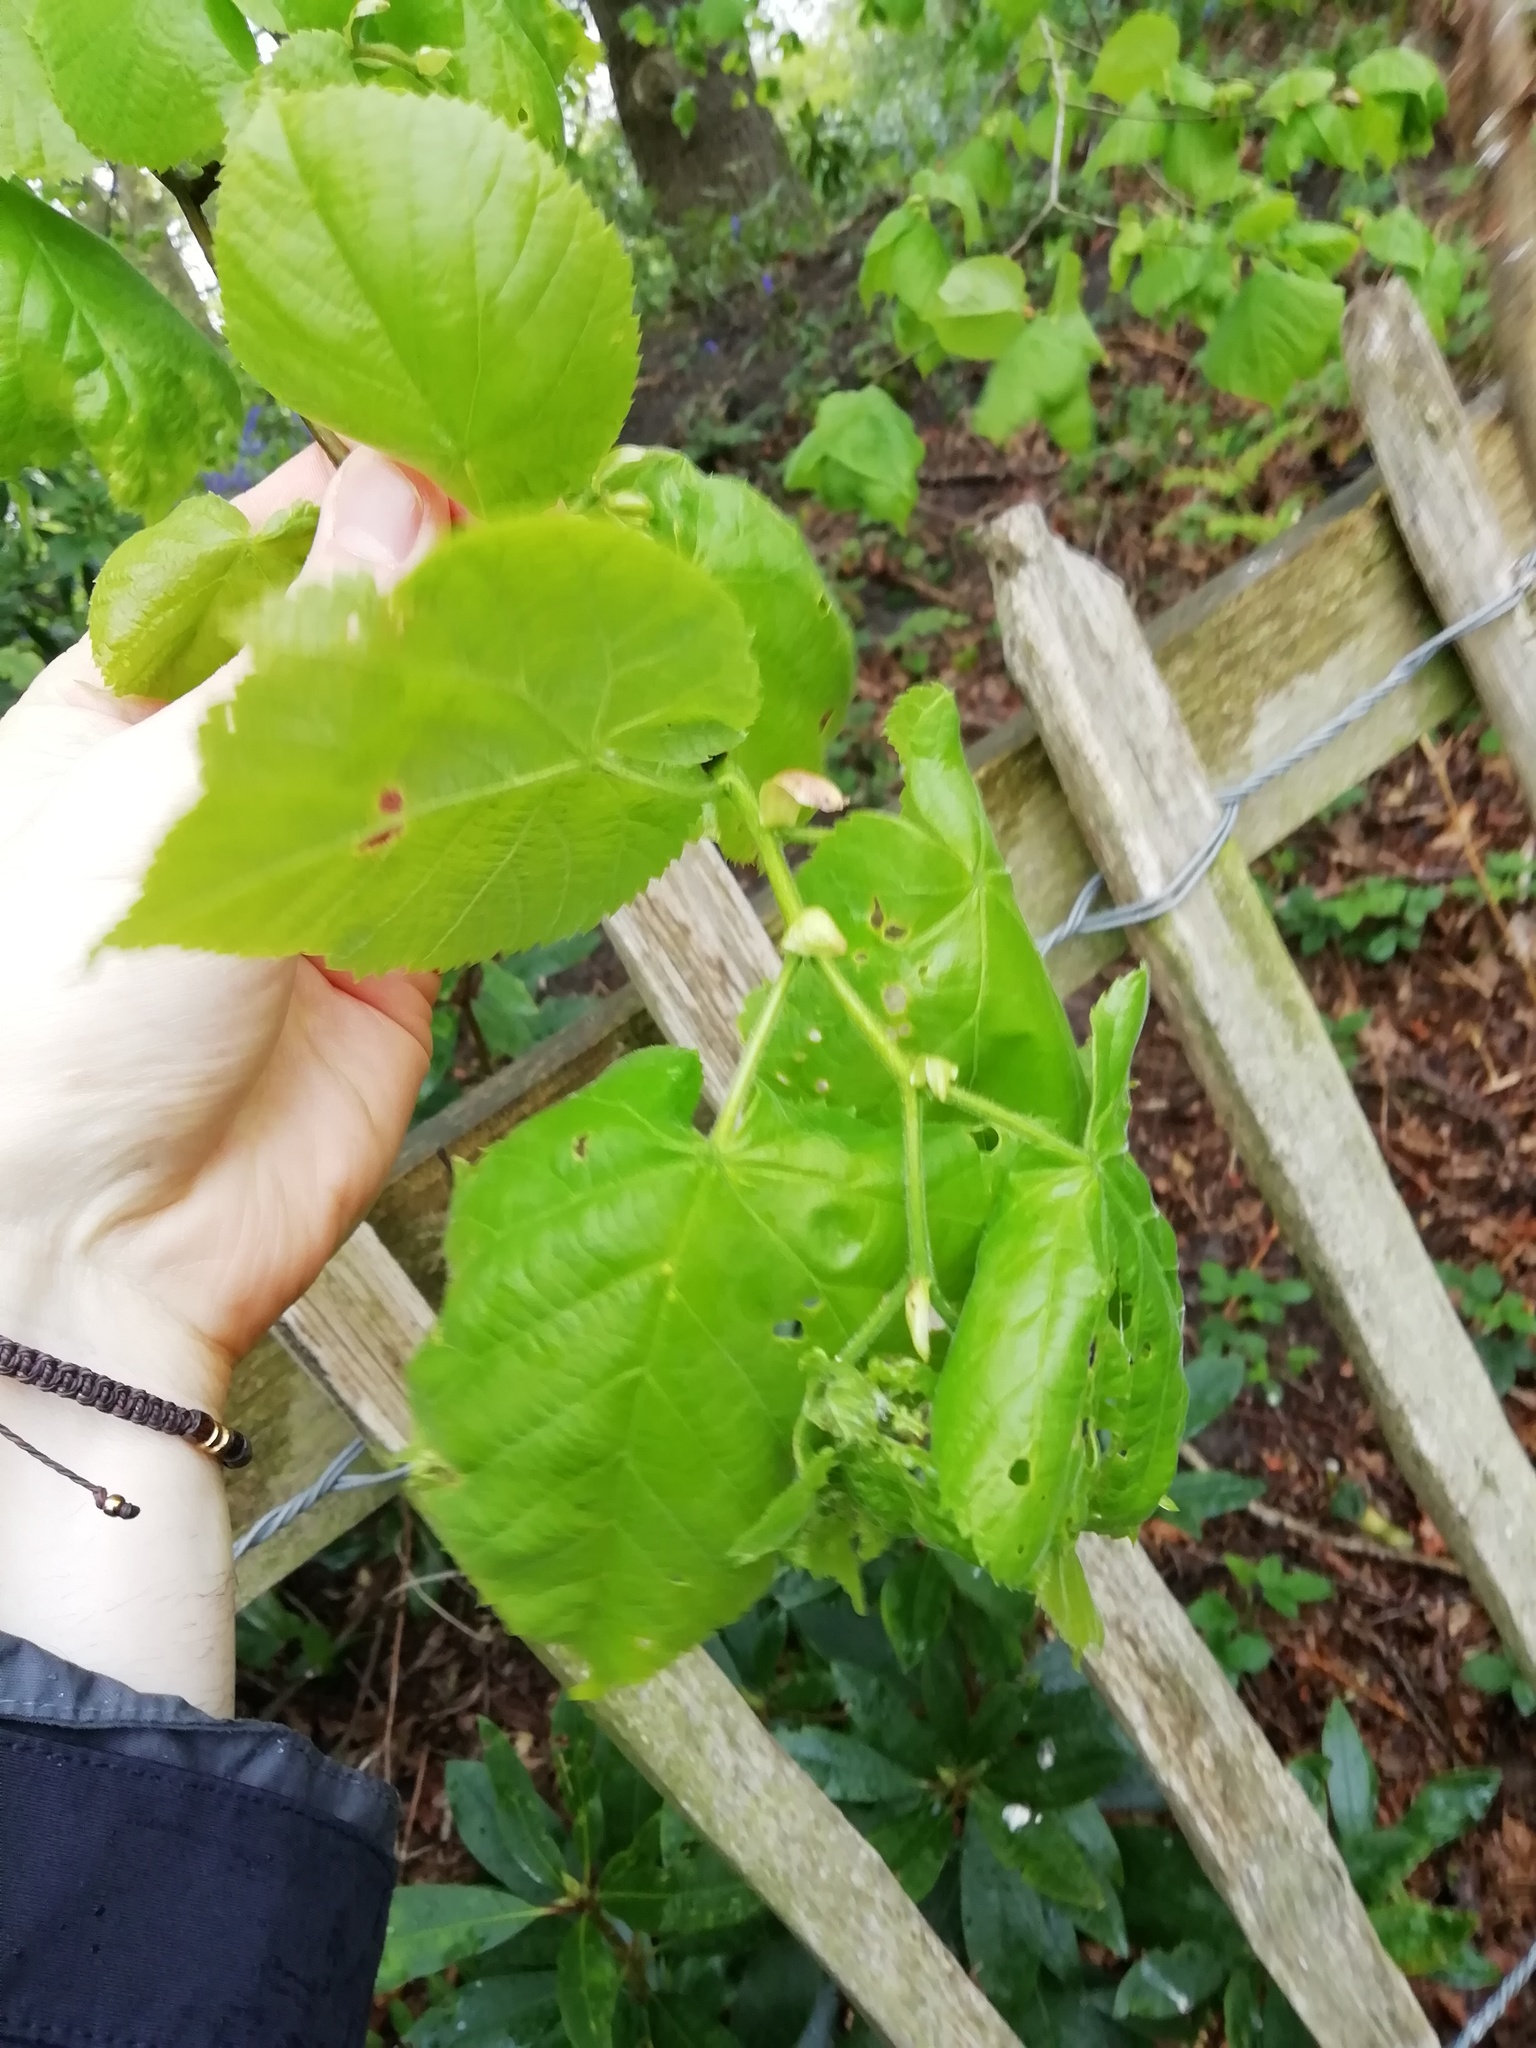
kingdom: Plantae
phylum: Tracheophyta
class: Magnoliopsida
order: Malvales
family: Malvaceae
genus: Tilia
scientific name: Tilia europaea
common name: European linden
